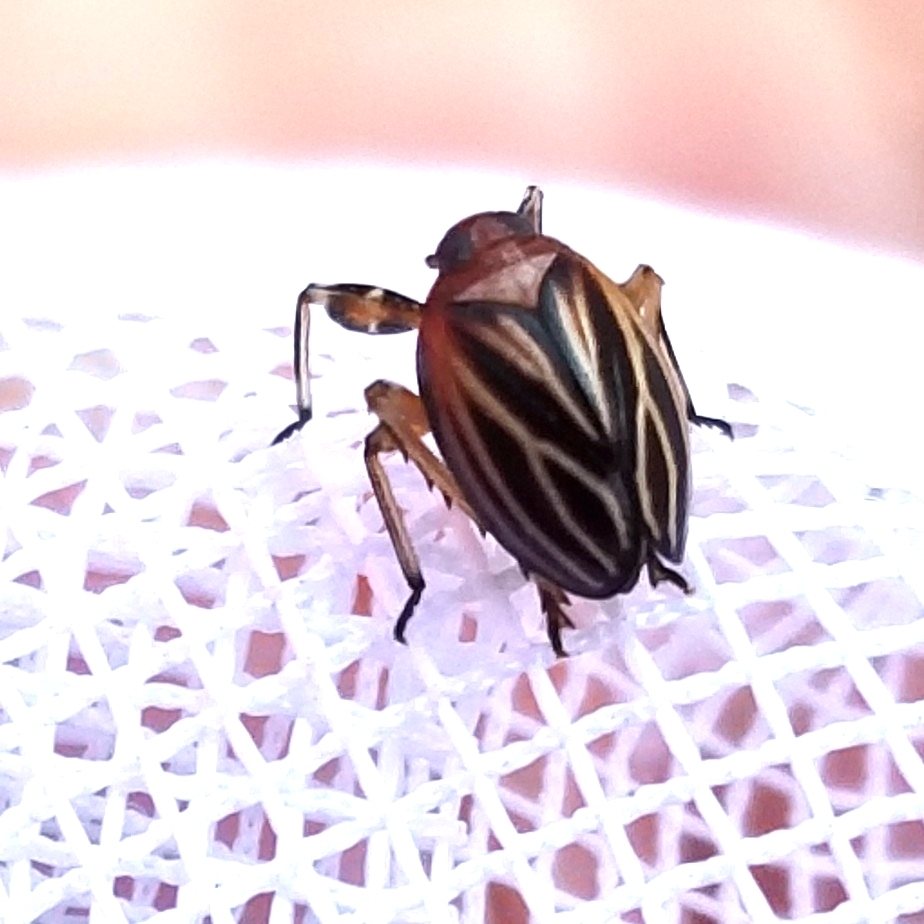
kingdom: Animalia
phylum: Arthropoda
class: Insecta
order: Hemiptera
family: Achilidae
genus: Isodaemon
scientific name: Isodaemon orontes
